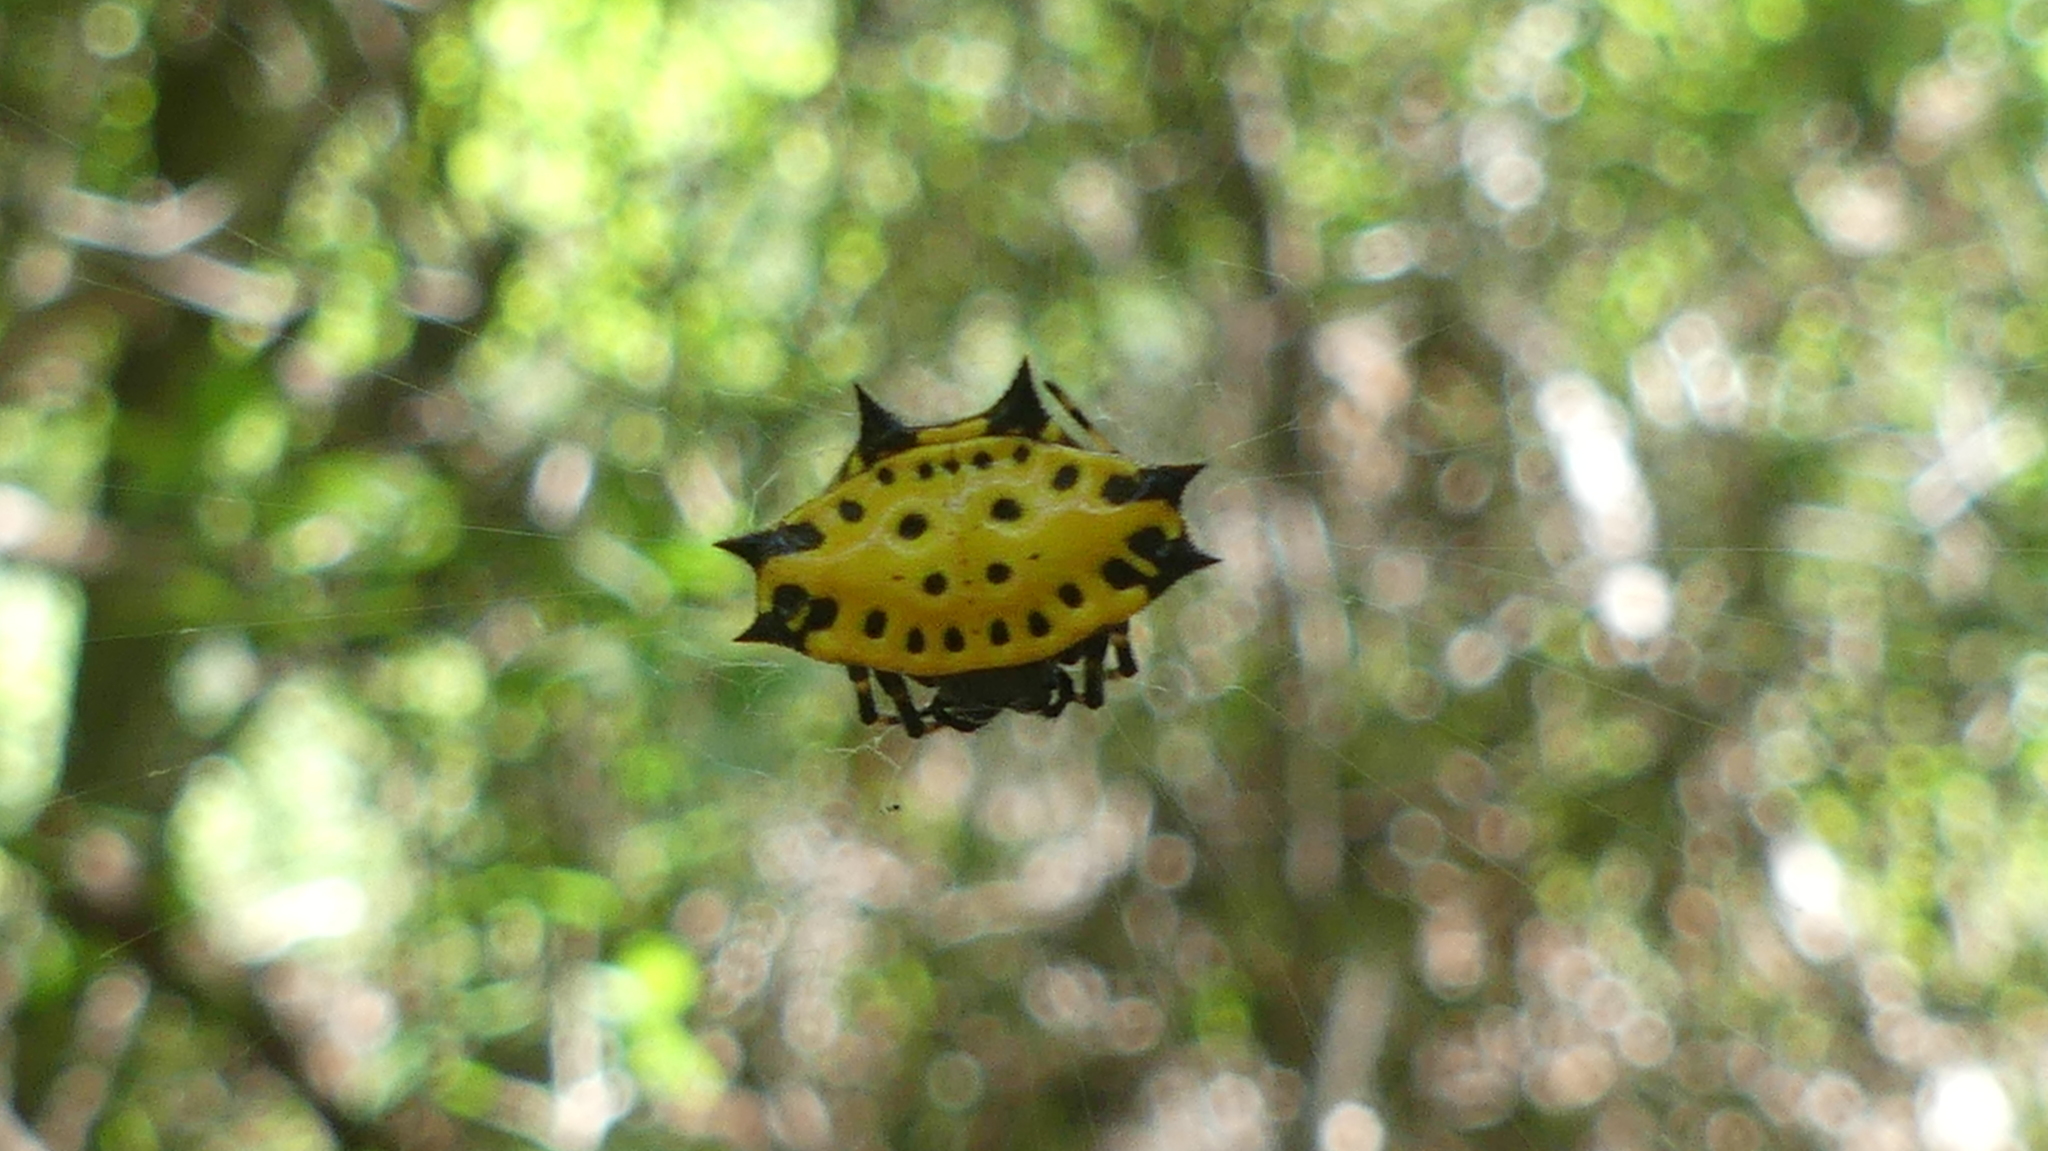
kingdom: Animalia
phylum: Arthropoda
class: Arachnida
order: Araneae
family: Araneidae
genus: Gasteracantha
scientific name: Gasteracantha cancriformis
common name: Orb weavers
